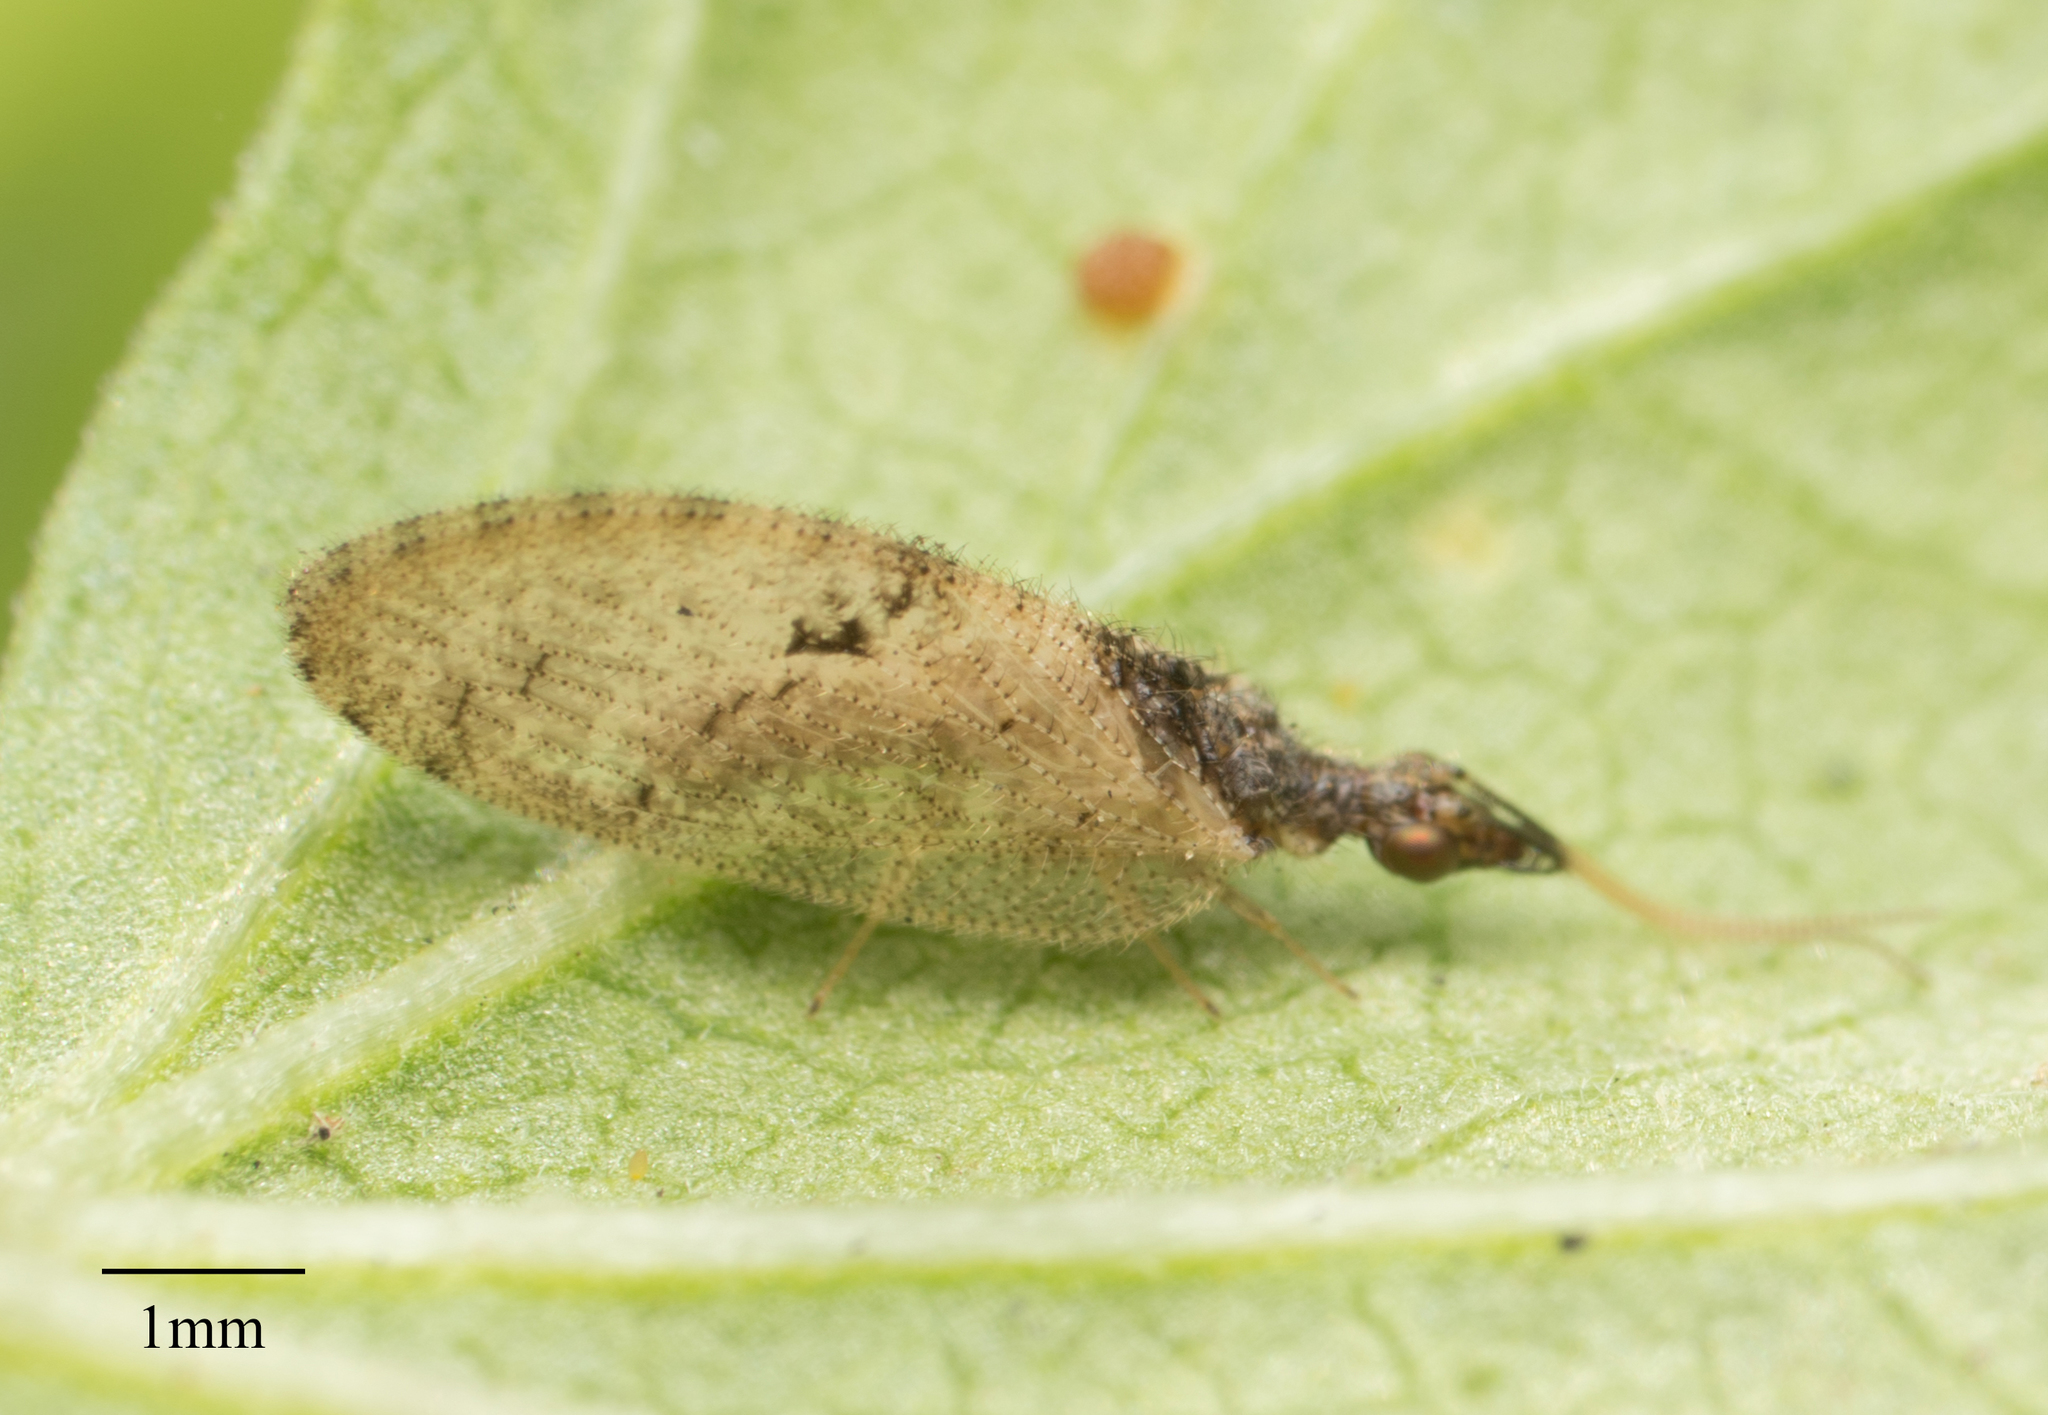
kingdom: Animalia
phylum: Arthropoda
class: Insecta
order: Neuroptera
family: Hemerobiidae
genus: Sympherobius
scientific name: Sympherobius barberi
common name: Brown lacewing
